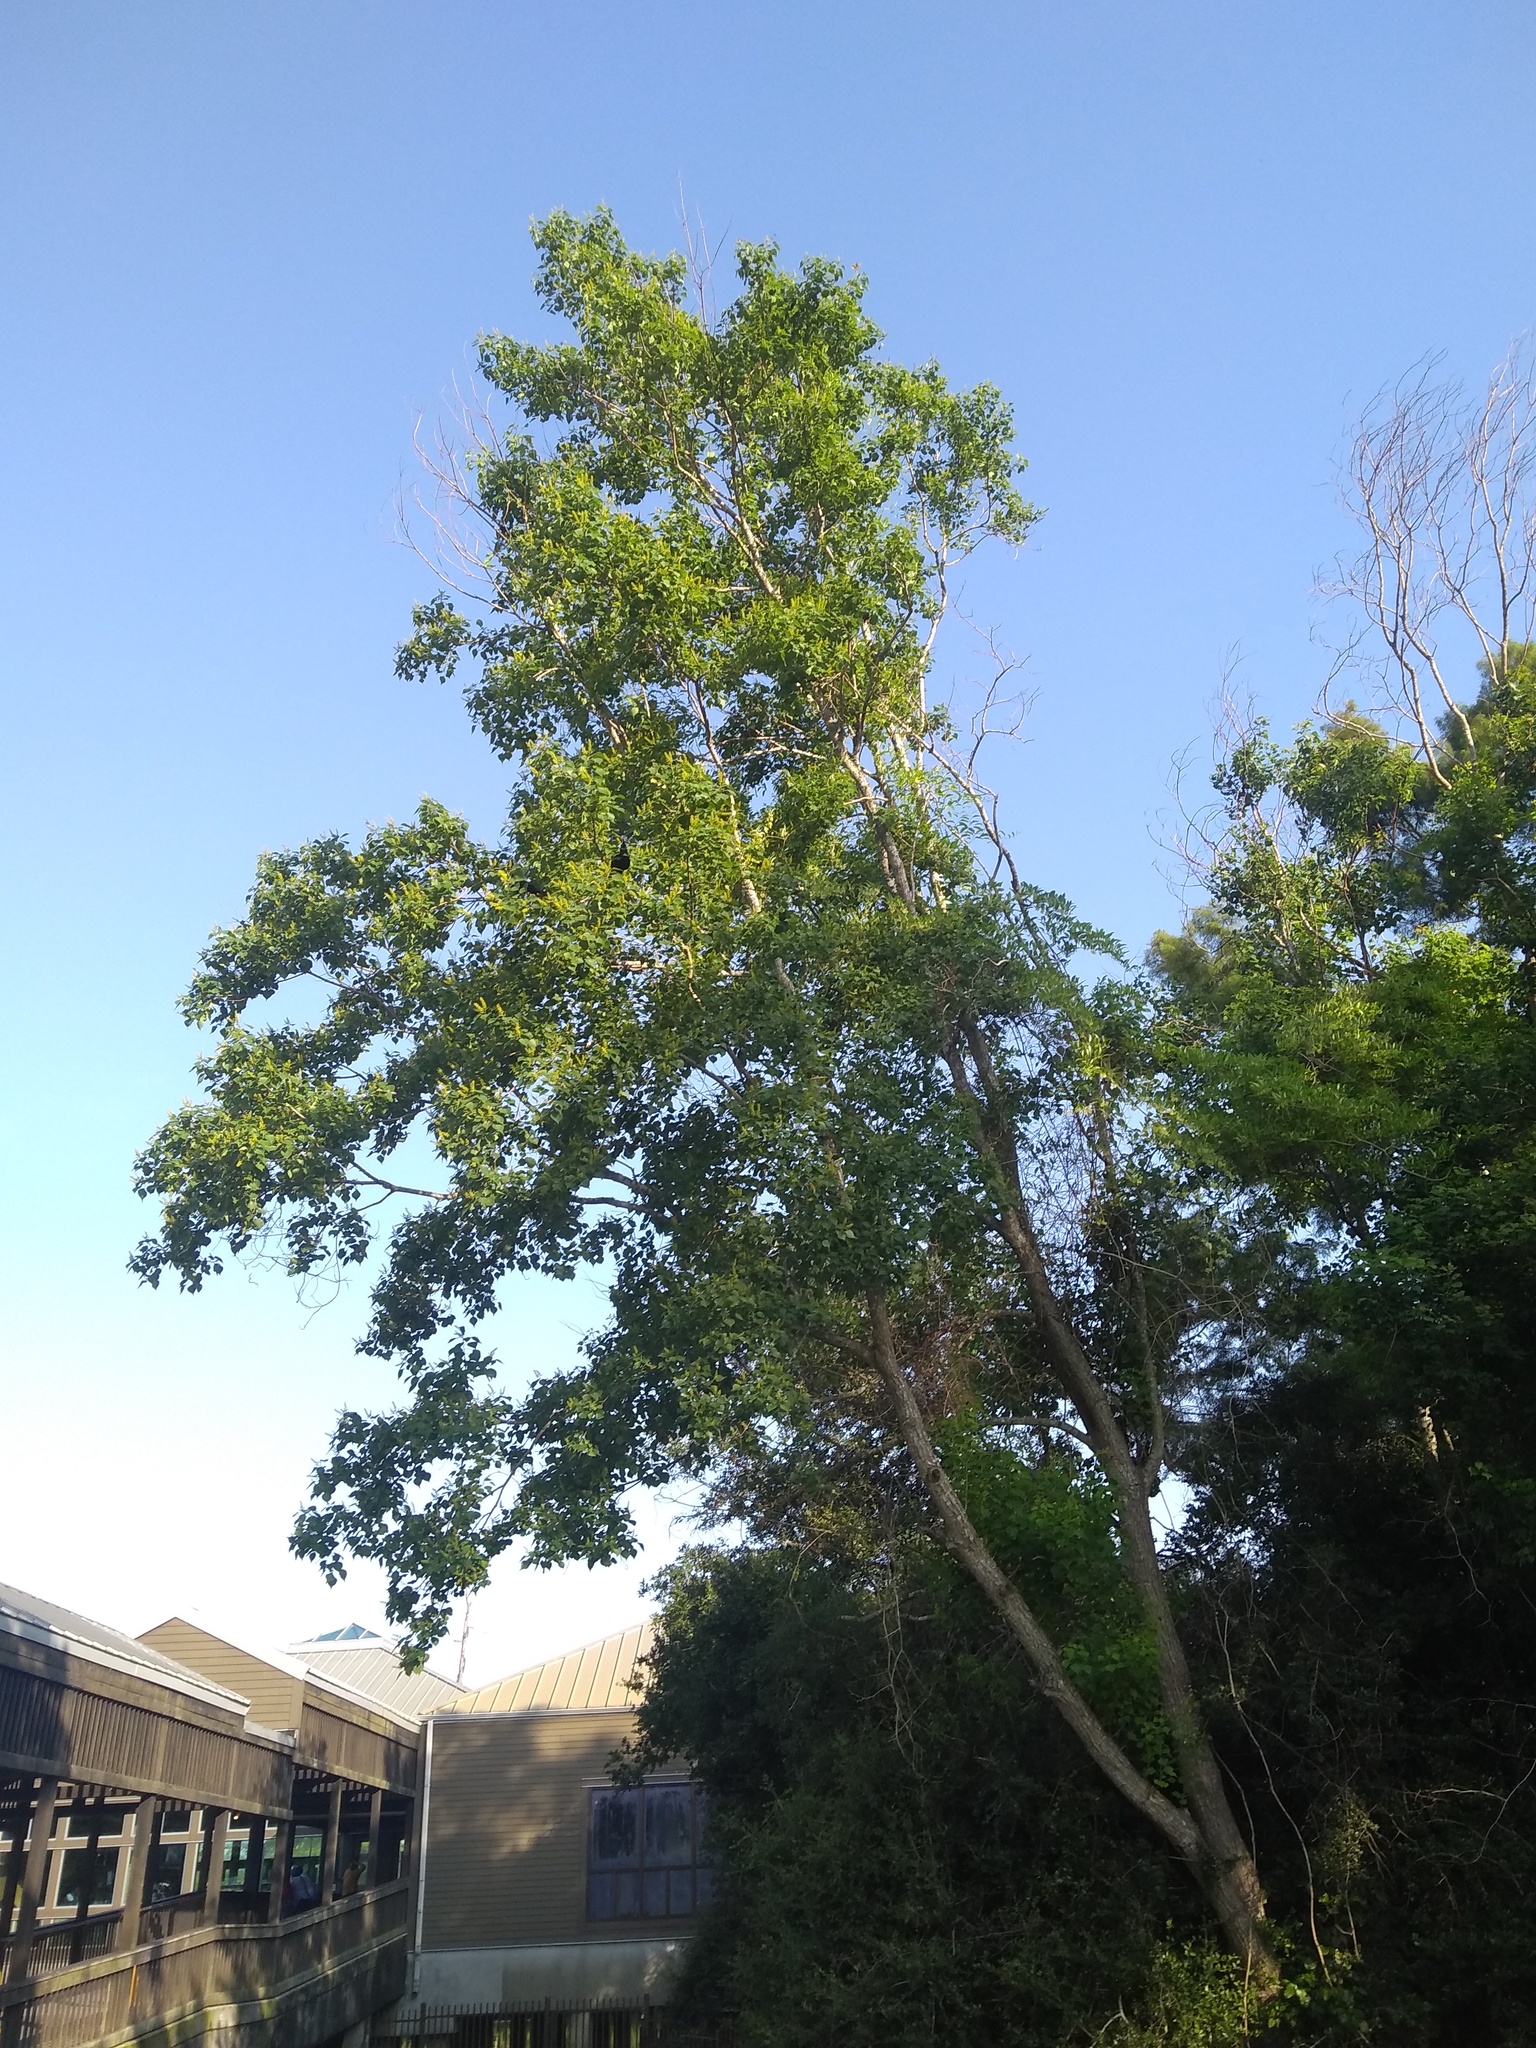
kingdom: Plantae
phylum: Tracheophyta
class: Magnoliopsida
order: Malpighiales
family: Euphorbiaceae
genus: Triadica
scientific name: Triadica sebifera
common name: Chinese tallow
